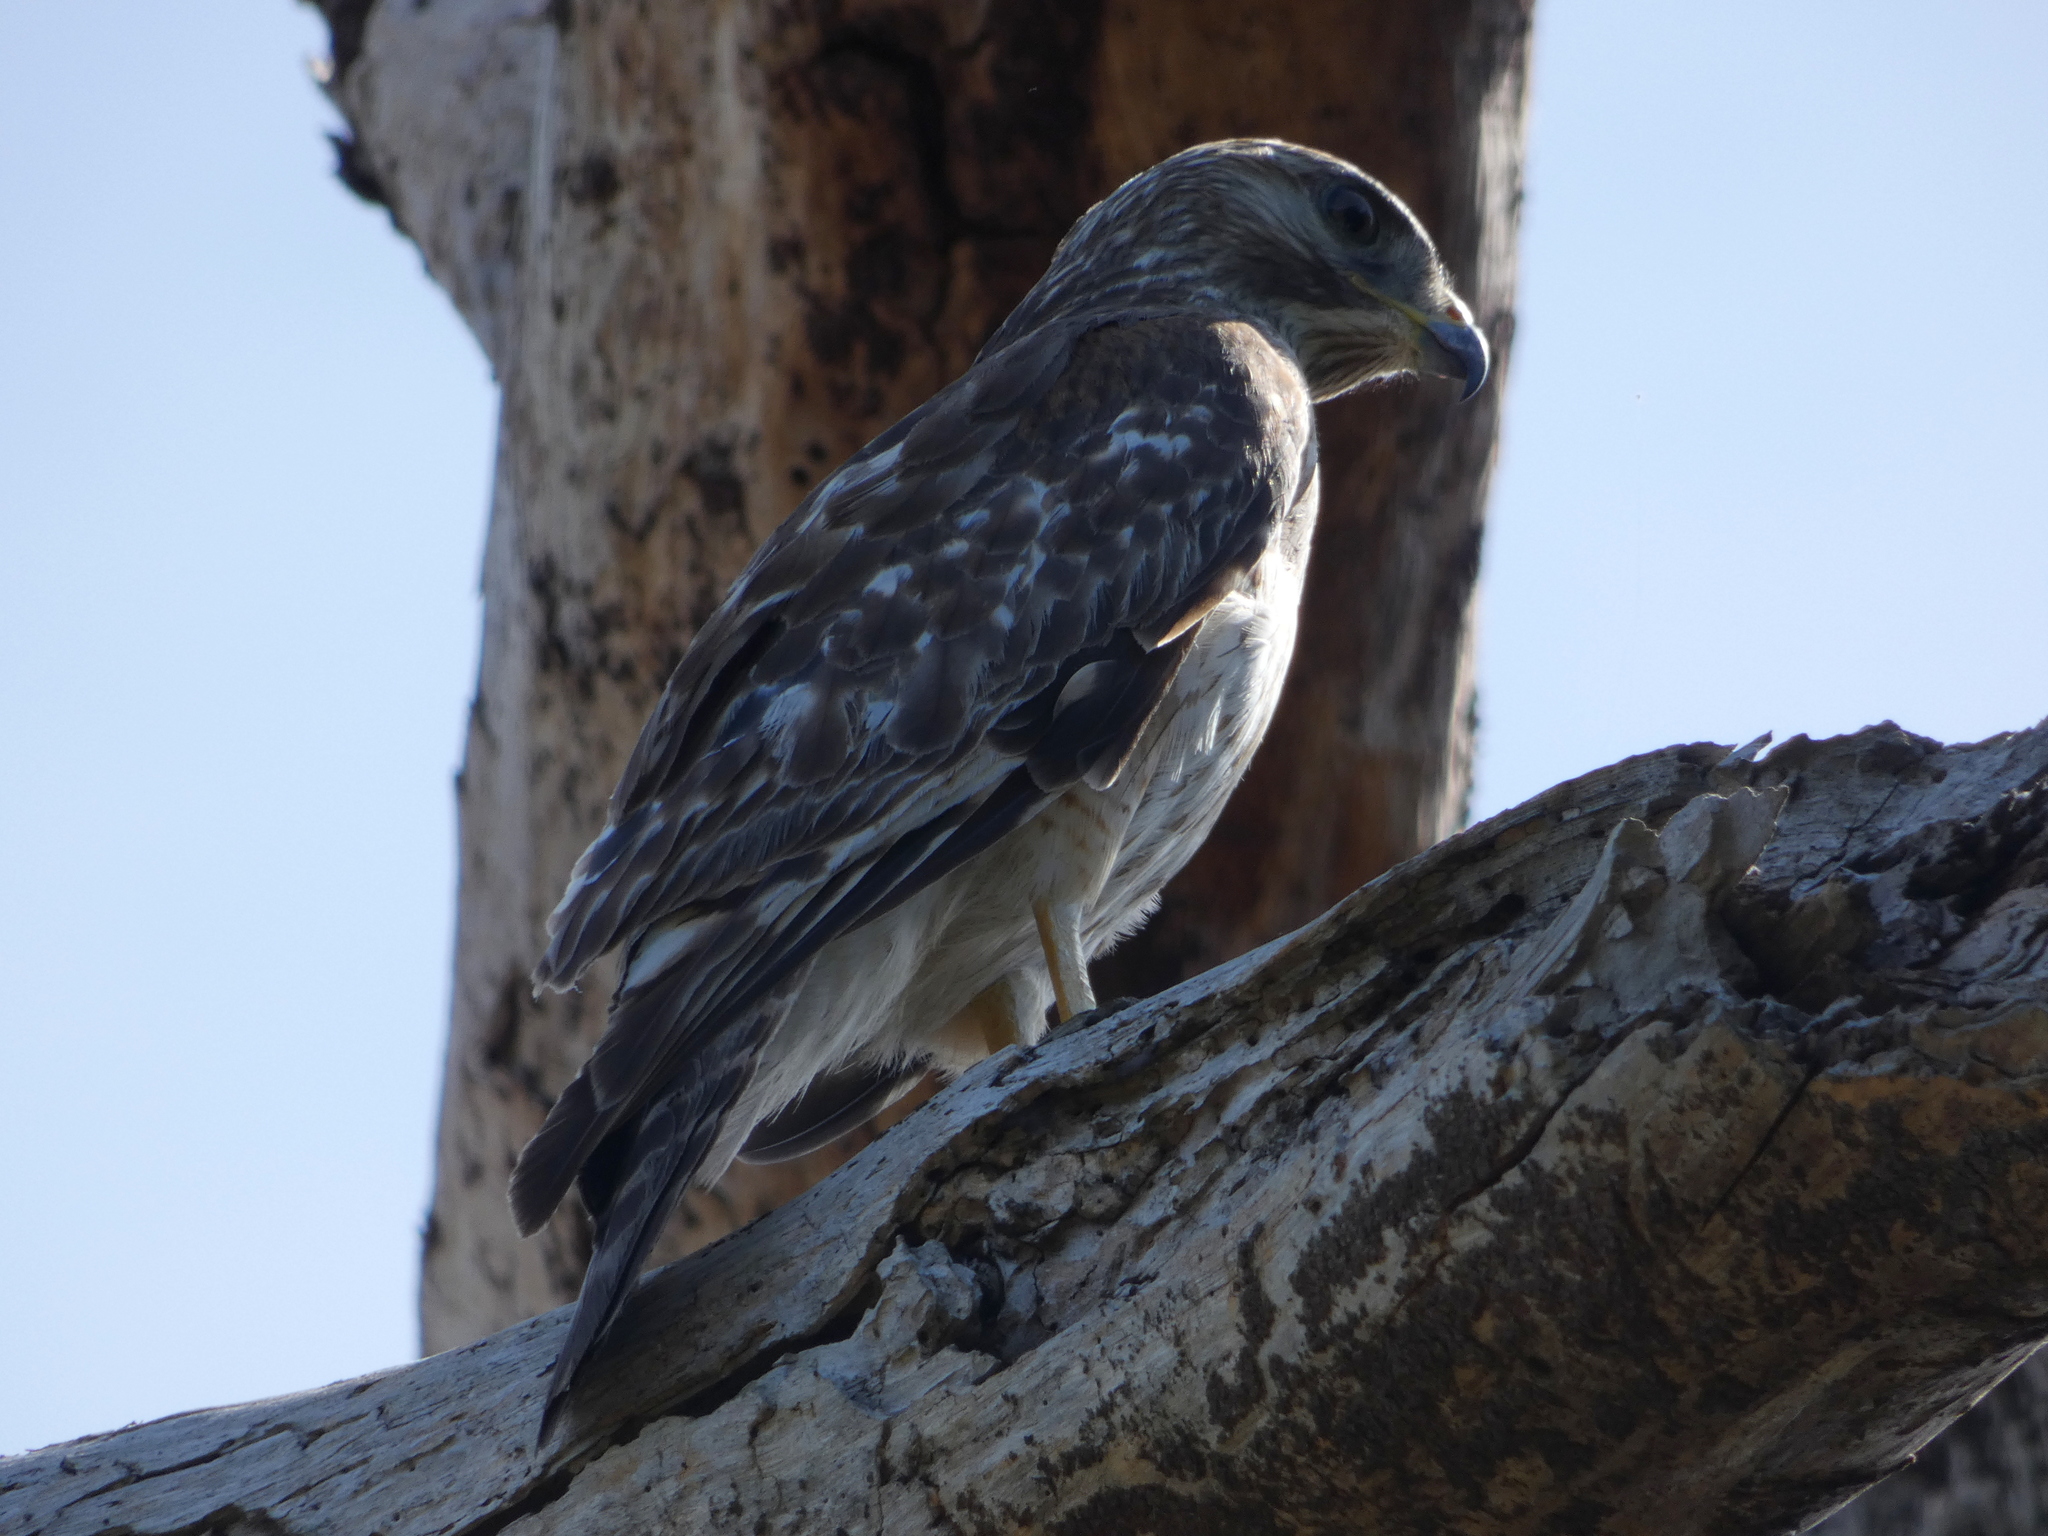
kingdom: Animalia
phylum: Chordata
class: Aves
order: Accipitriformes
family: Accipitridae
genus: Buteo
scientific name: Buteo lineatus
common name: Red-shouldered hawk
